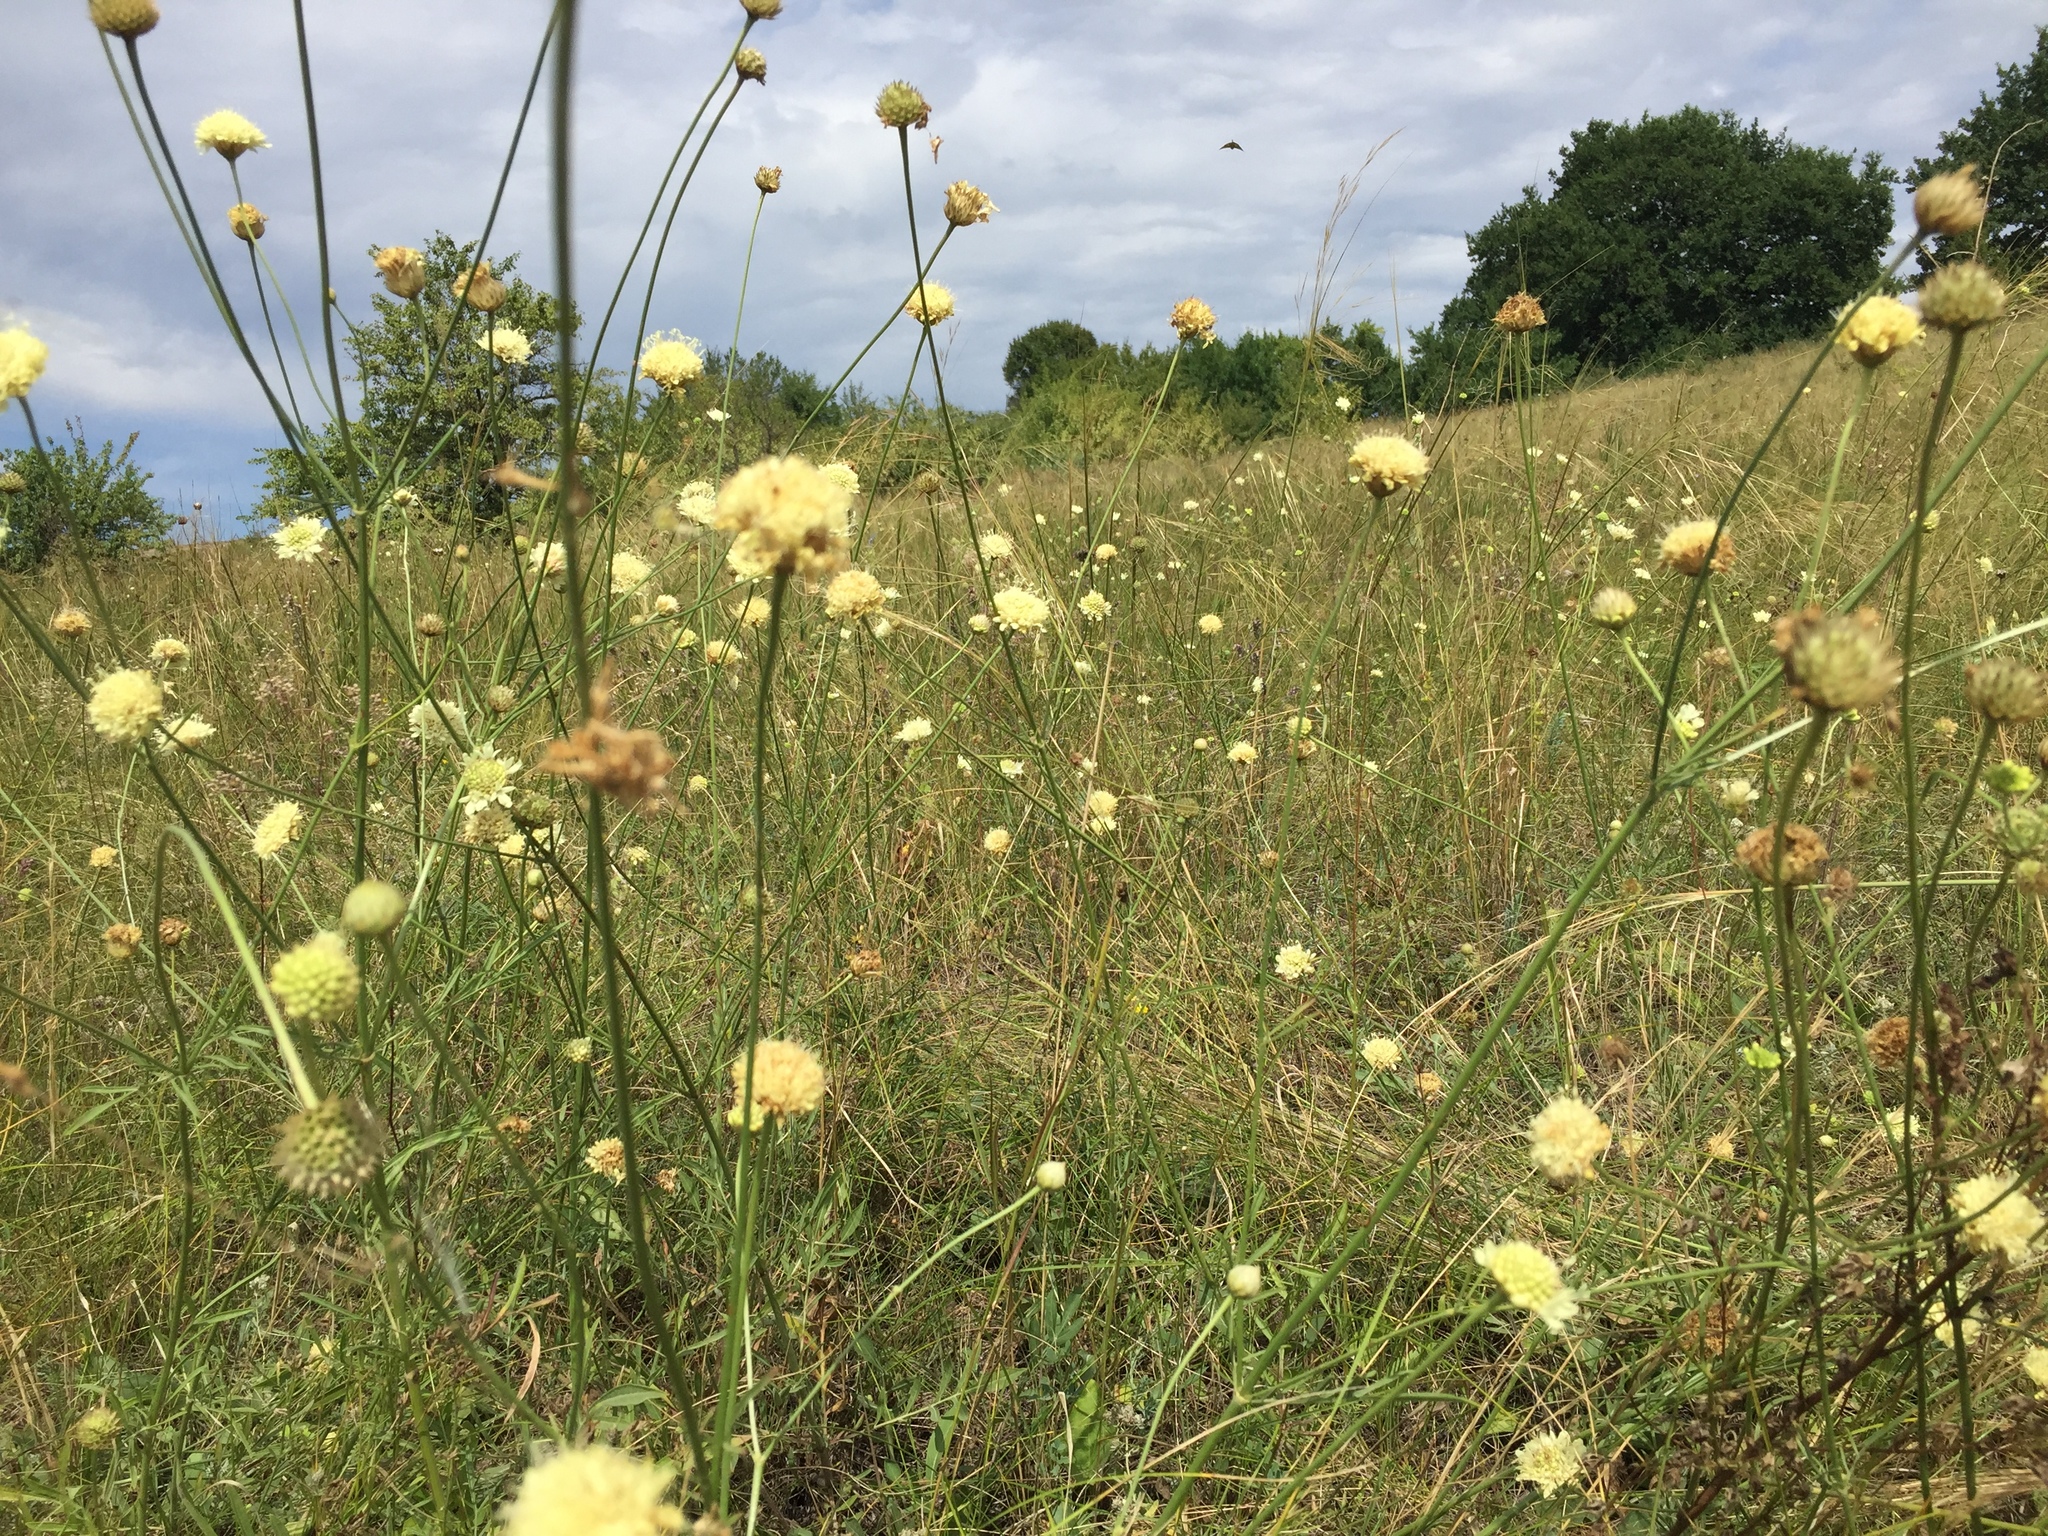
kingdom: Plantae
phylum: Tracheophyta
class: Magnoliopsida
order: Dipsacales
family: Caprifoliaceae
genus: Cephalaria
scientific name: Cephalaria uralensis
